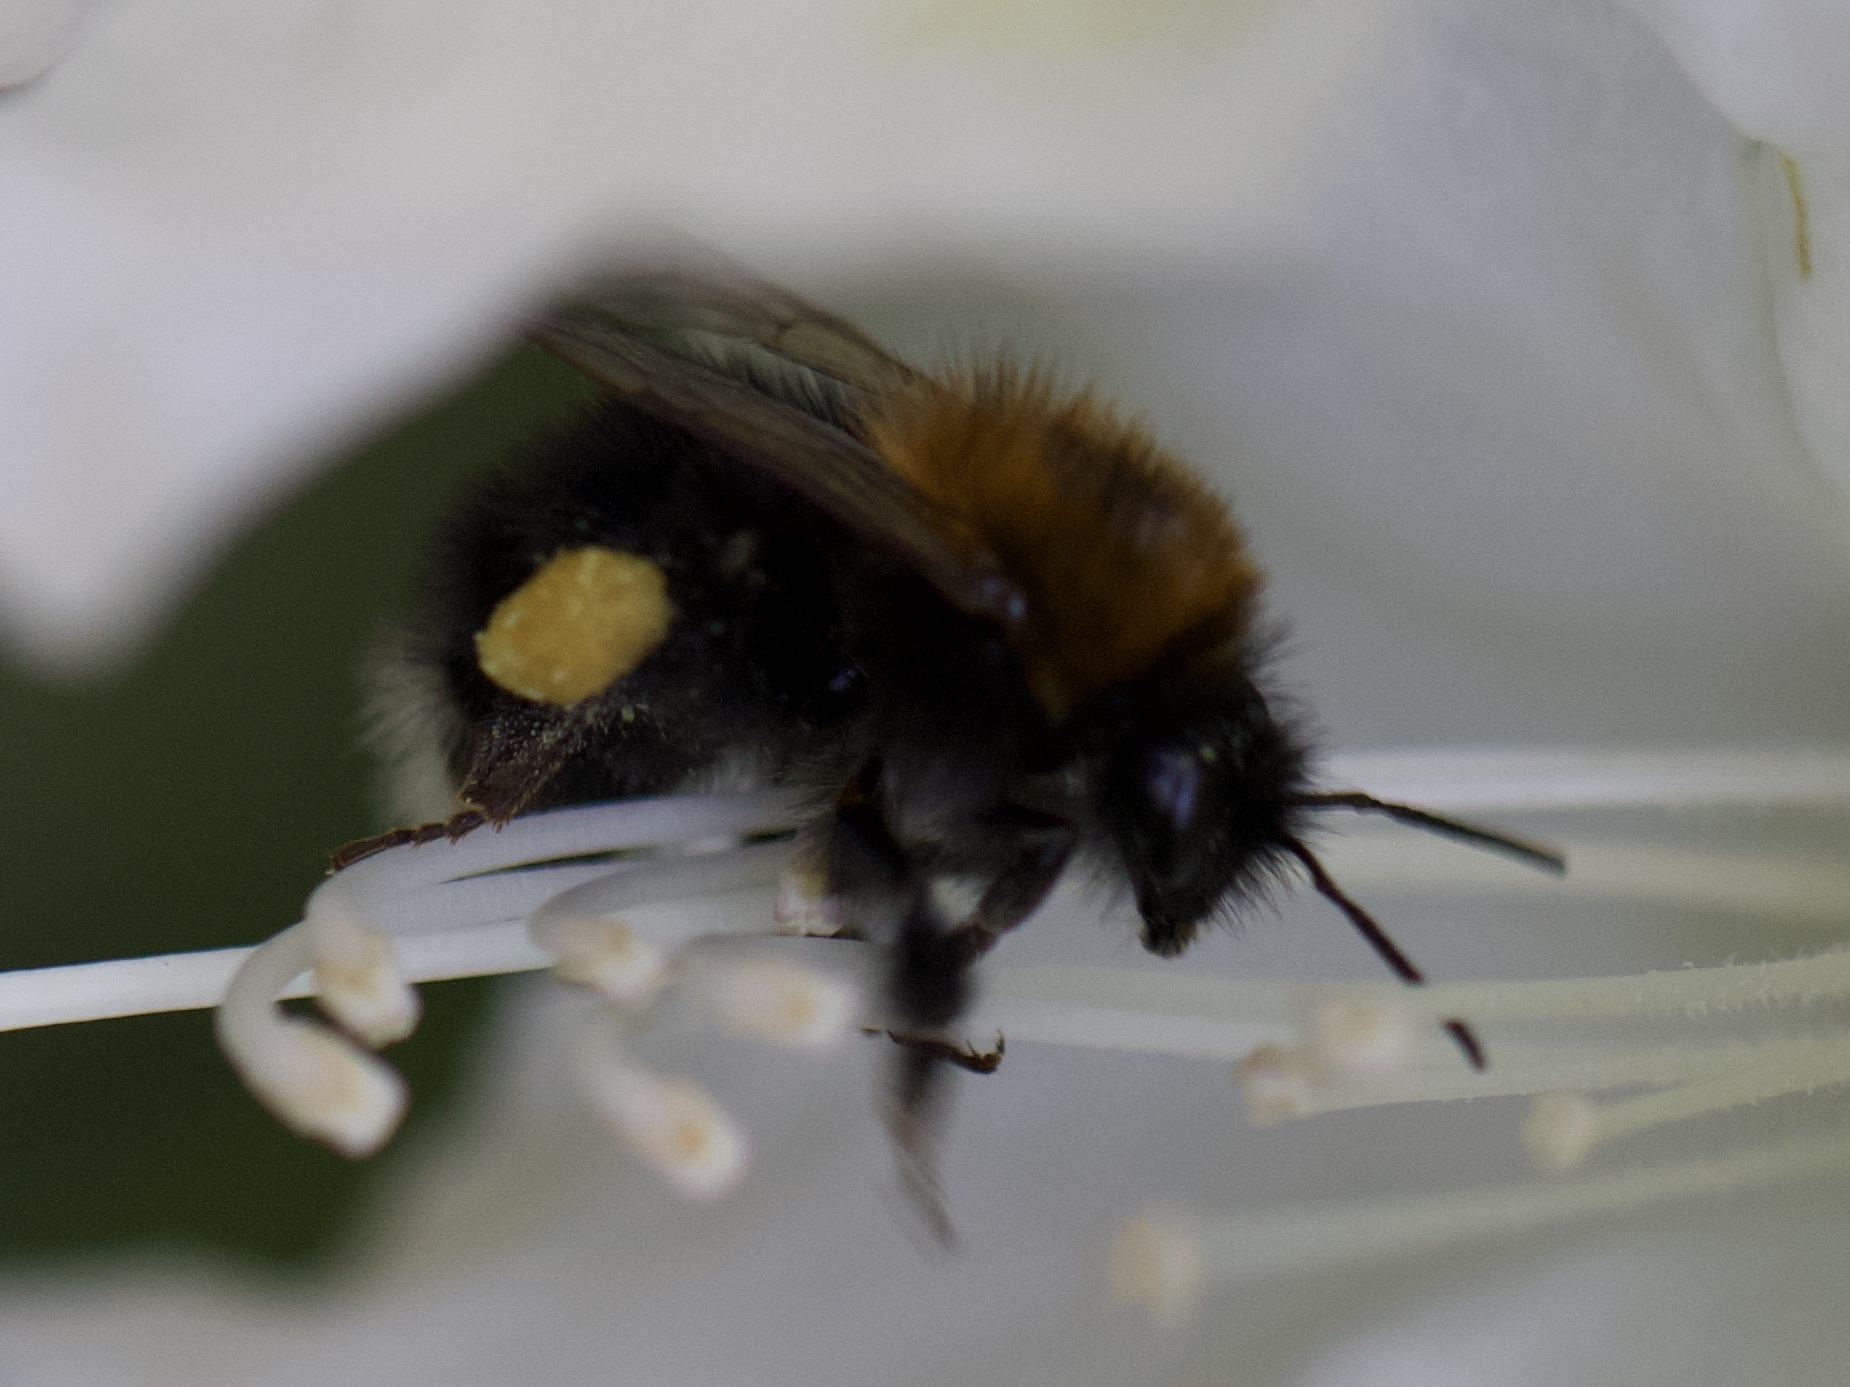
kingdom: Animalia
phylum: Arthropoda
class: Insecta
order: Hymenoptera
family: Apidae
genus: Bombus
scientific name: Bombus hypnorum
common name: New garden bumblebee
